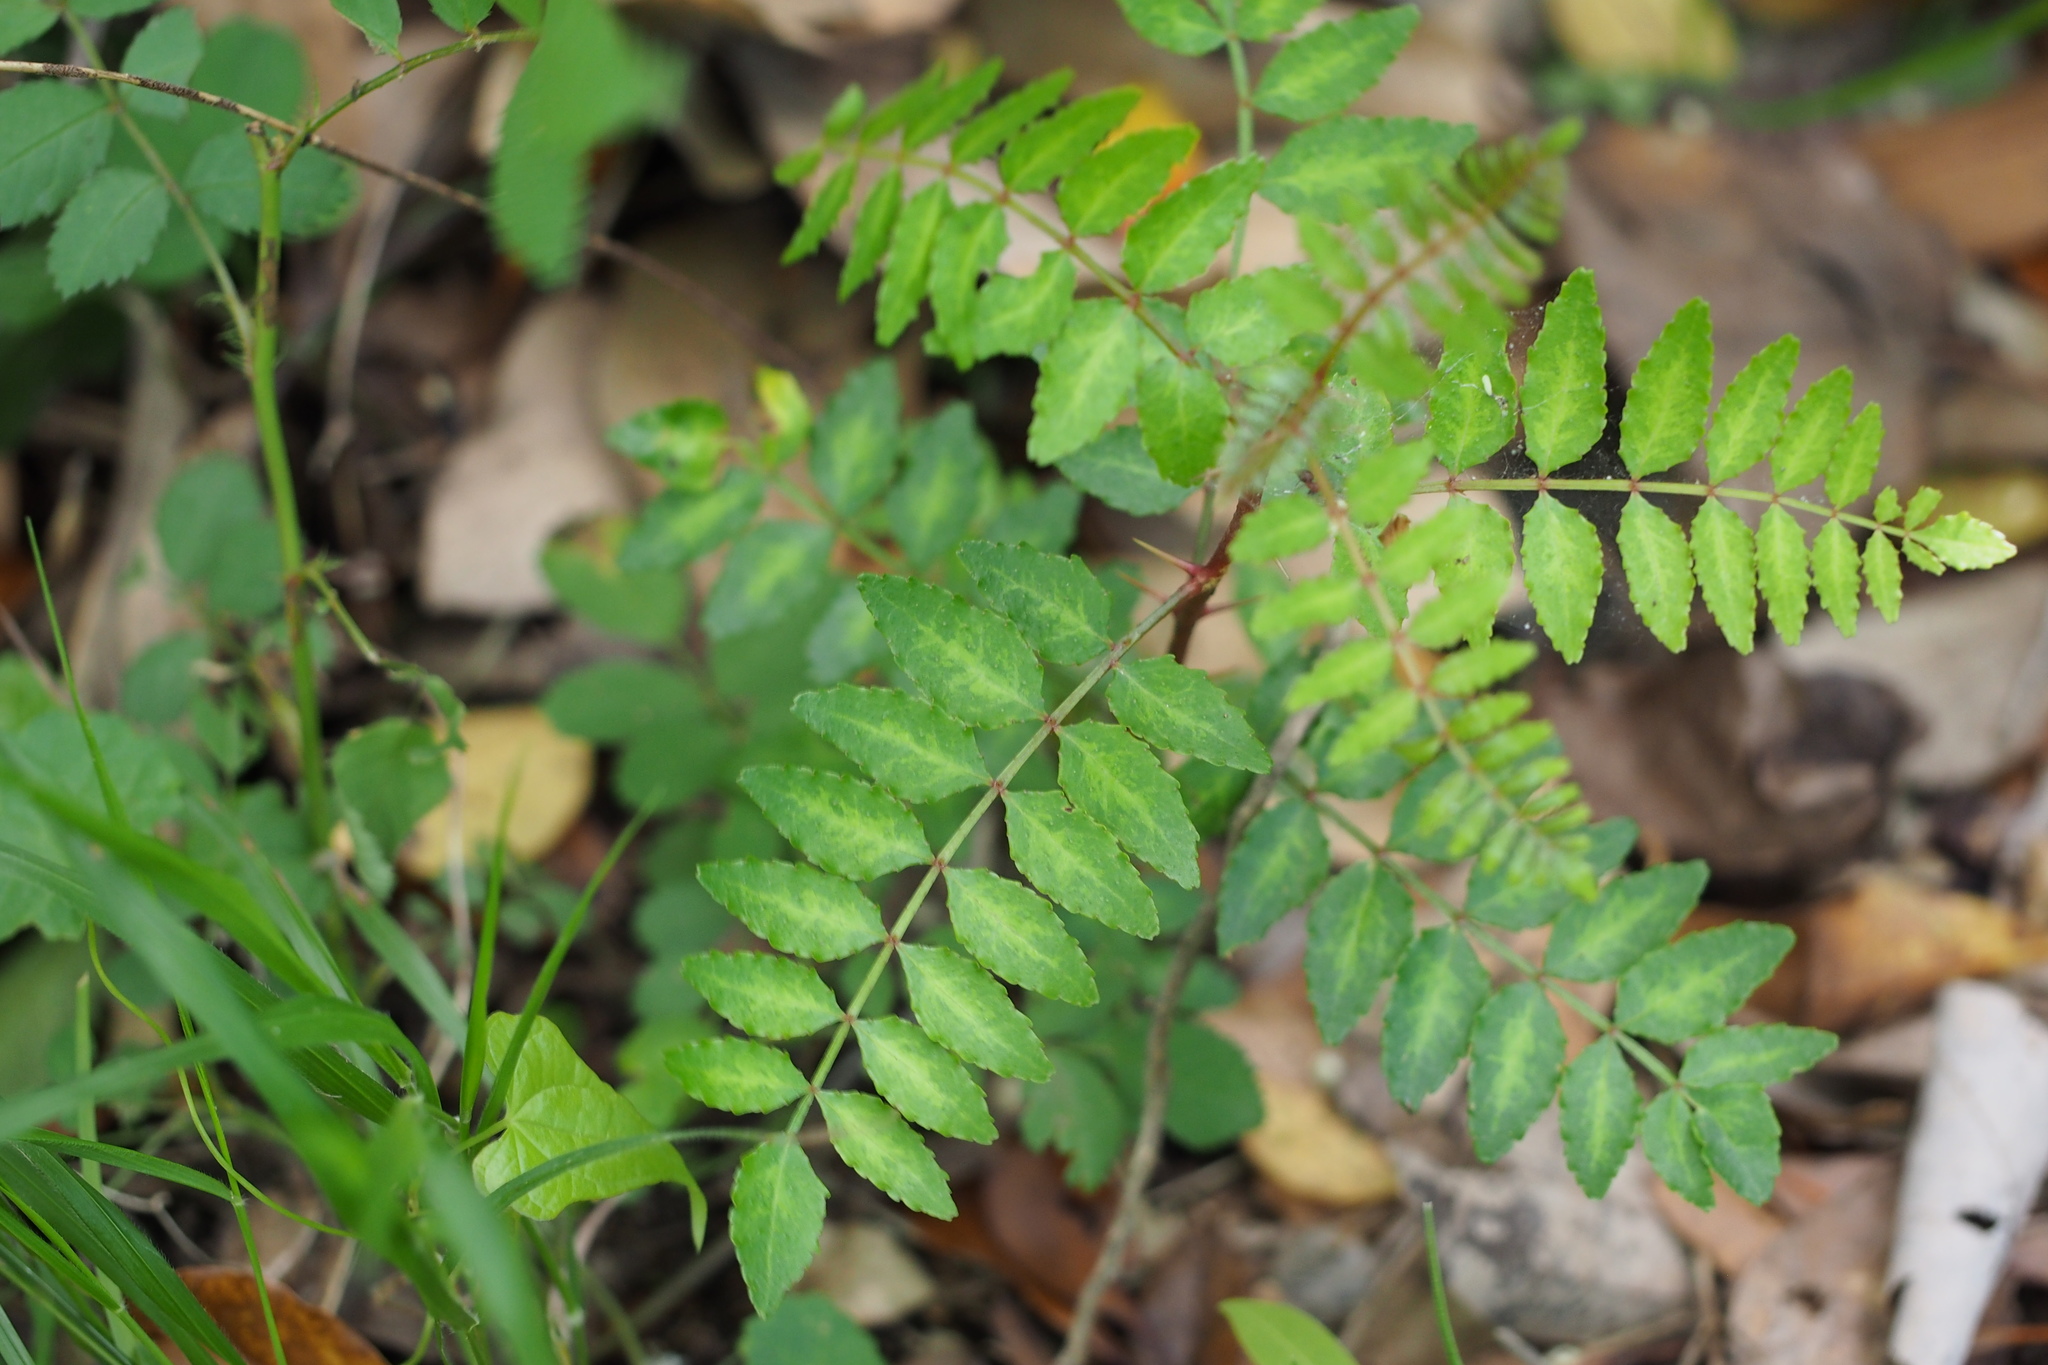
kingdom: Plantae
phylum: Tracheophyta
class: Magnoliopsida
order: Sapindales
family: Rutaceae
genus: Zanthoxylum
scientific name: Zanthoxylum piperitum
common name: Japanese-pepper
